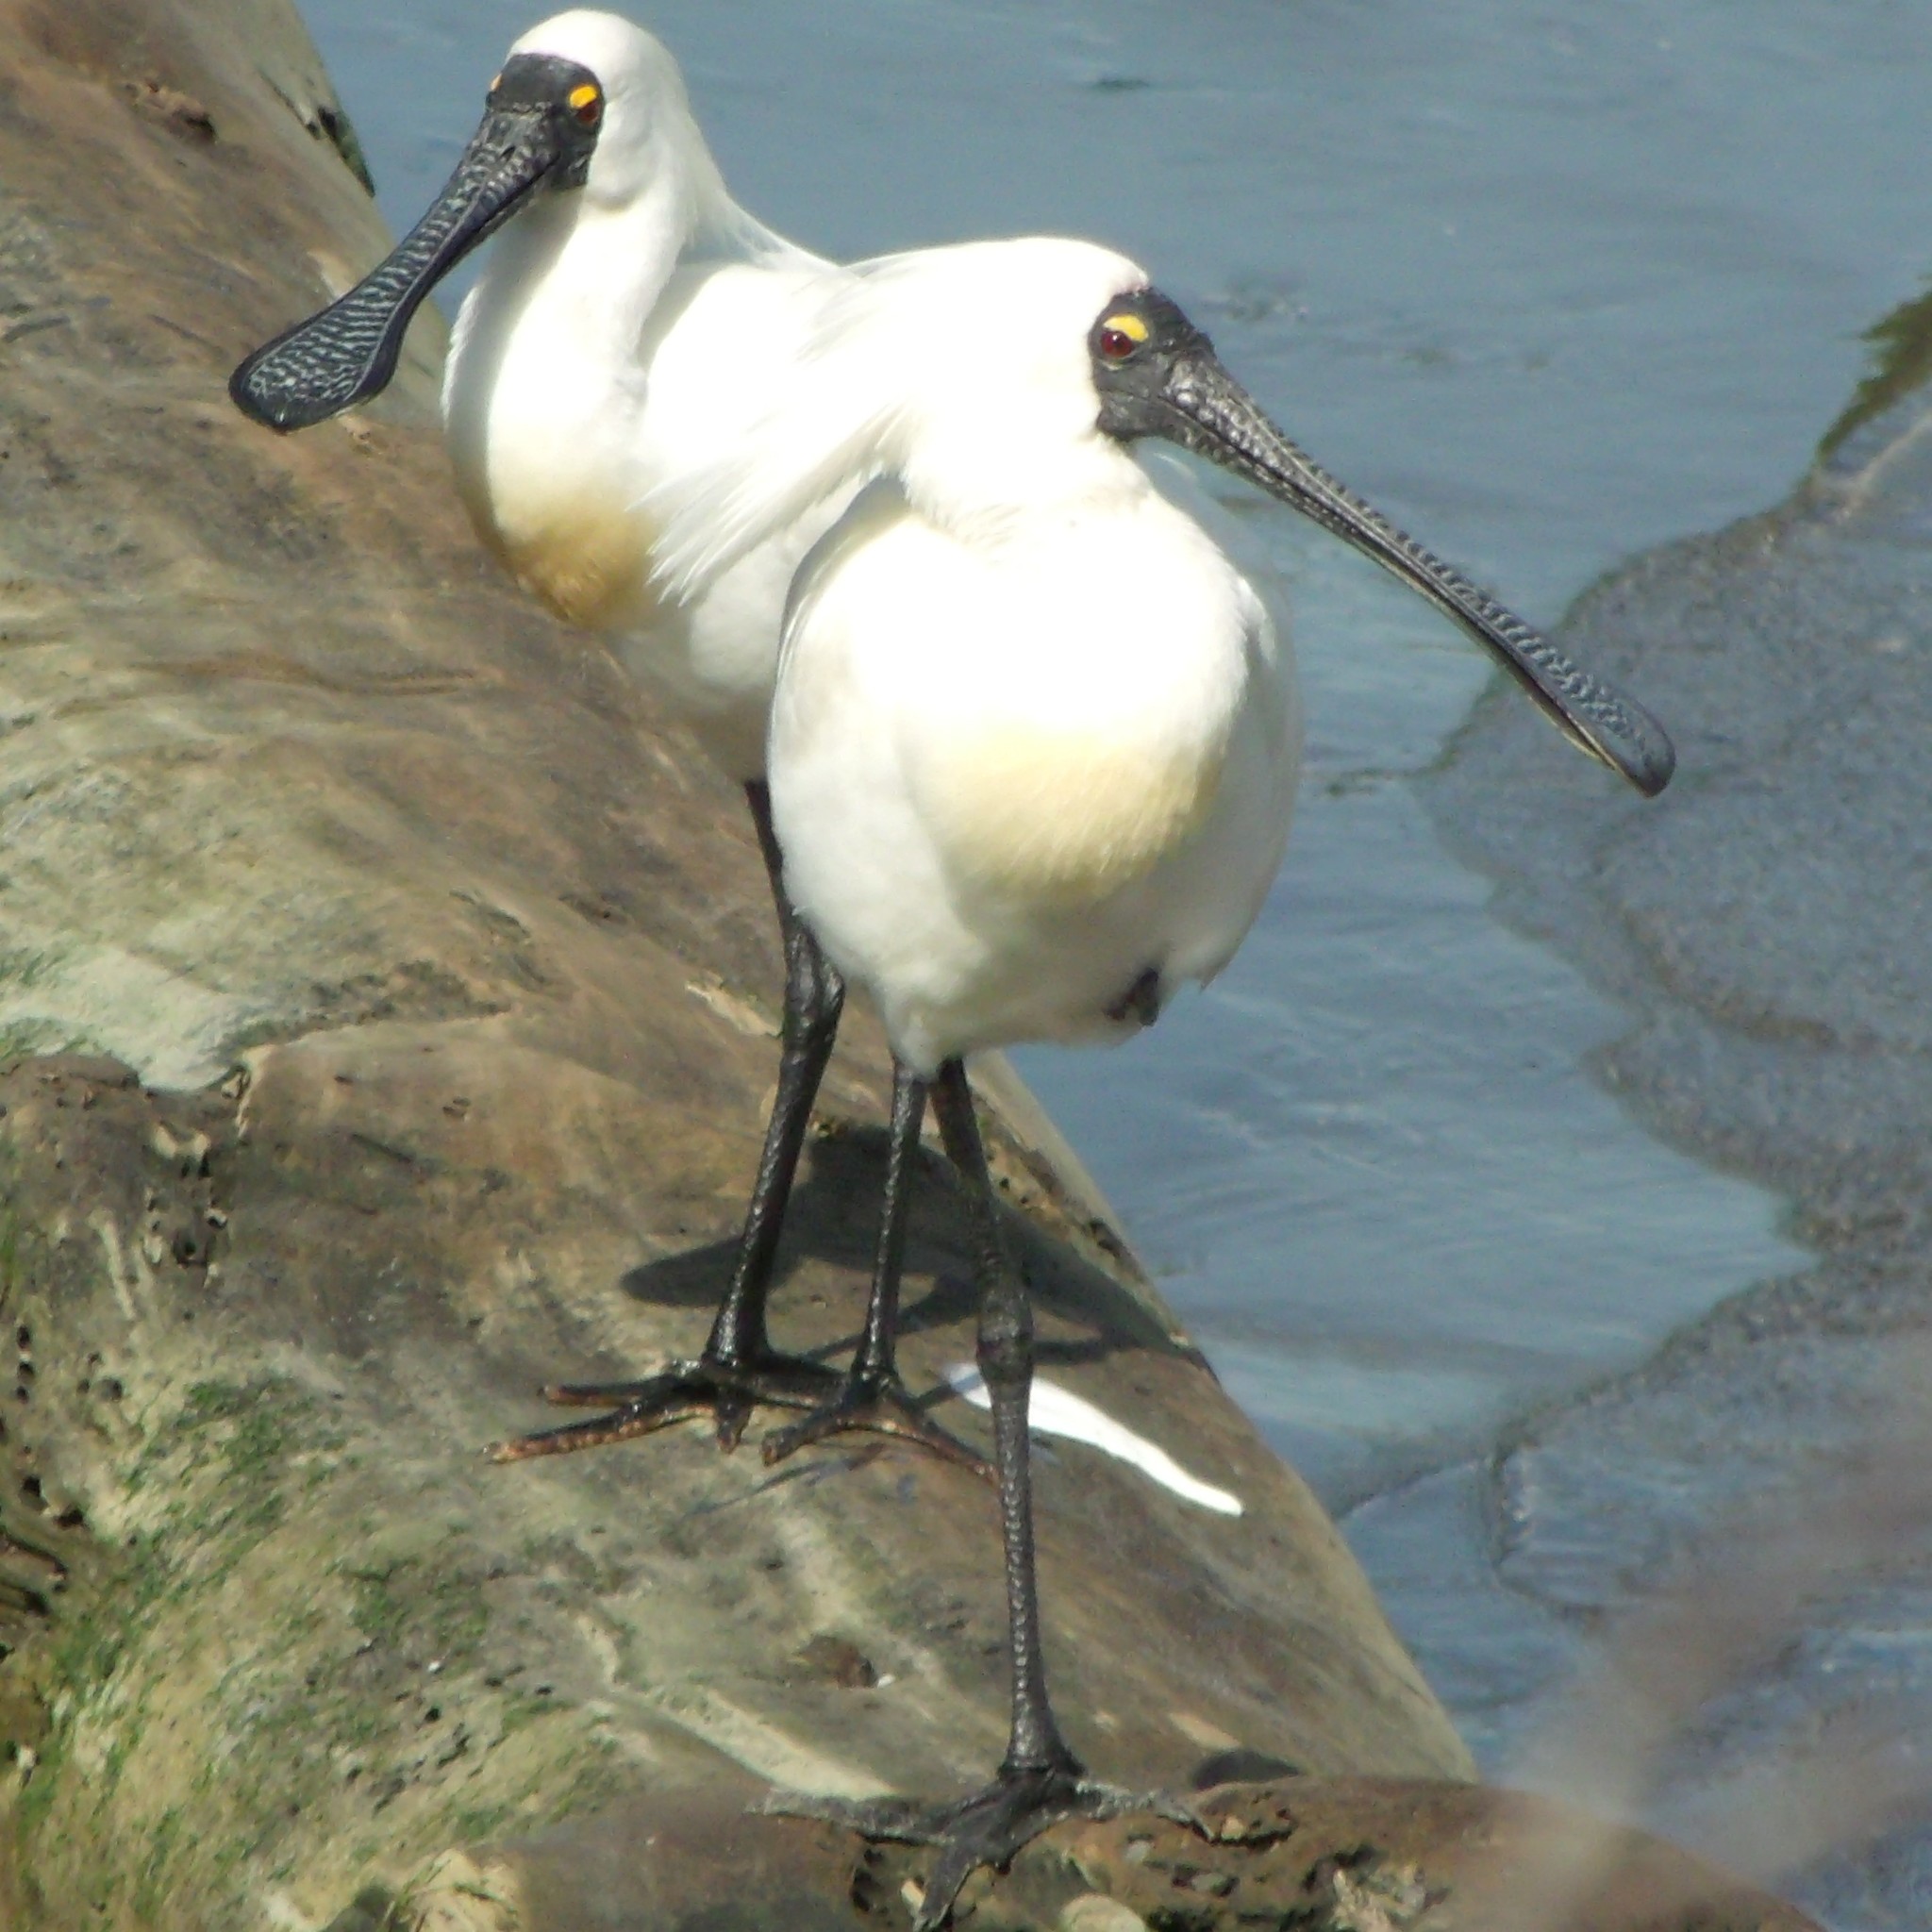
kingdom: Animalia
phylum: Chordata
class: Aves
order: Pelecaniformes
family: Threskiornithidae
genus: Platalea
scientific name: Platalea regia
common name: Royal spoonbill
